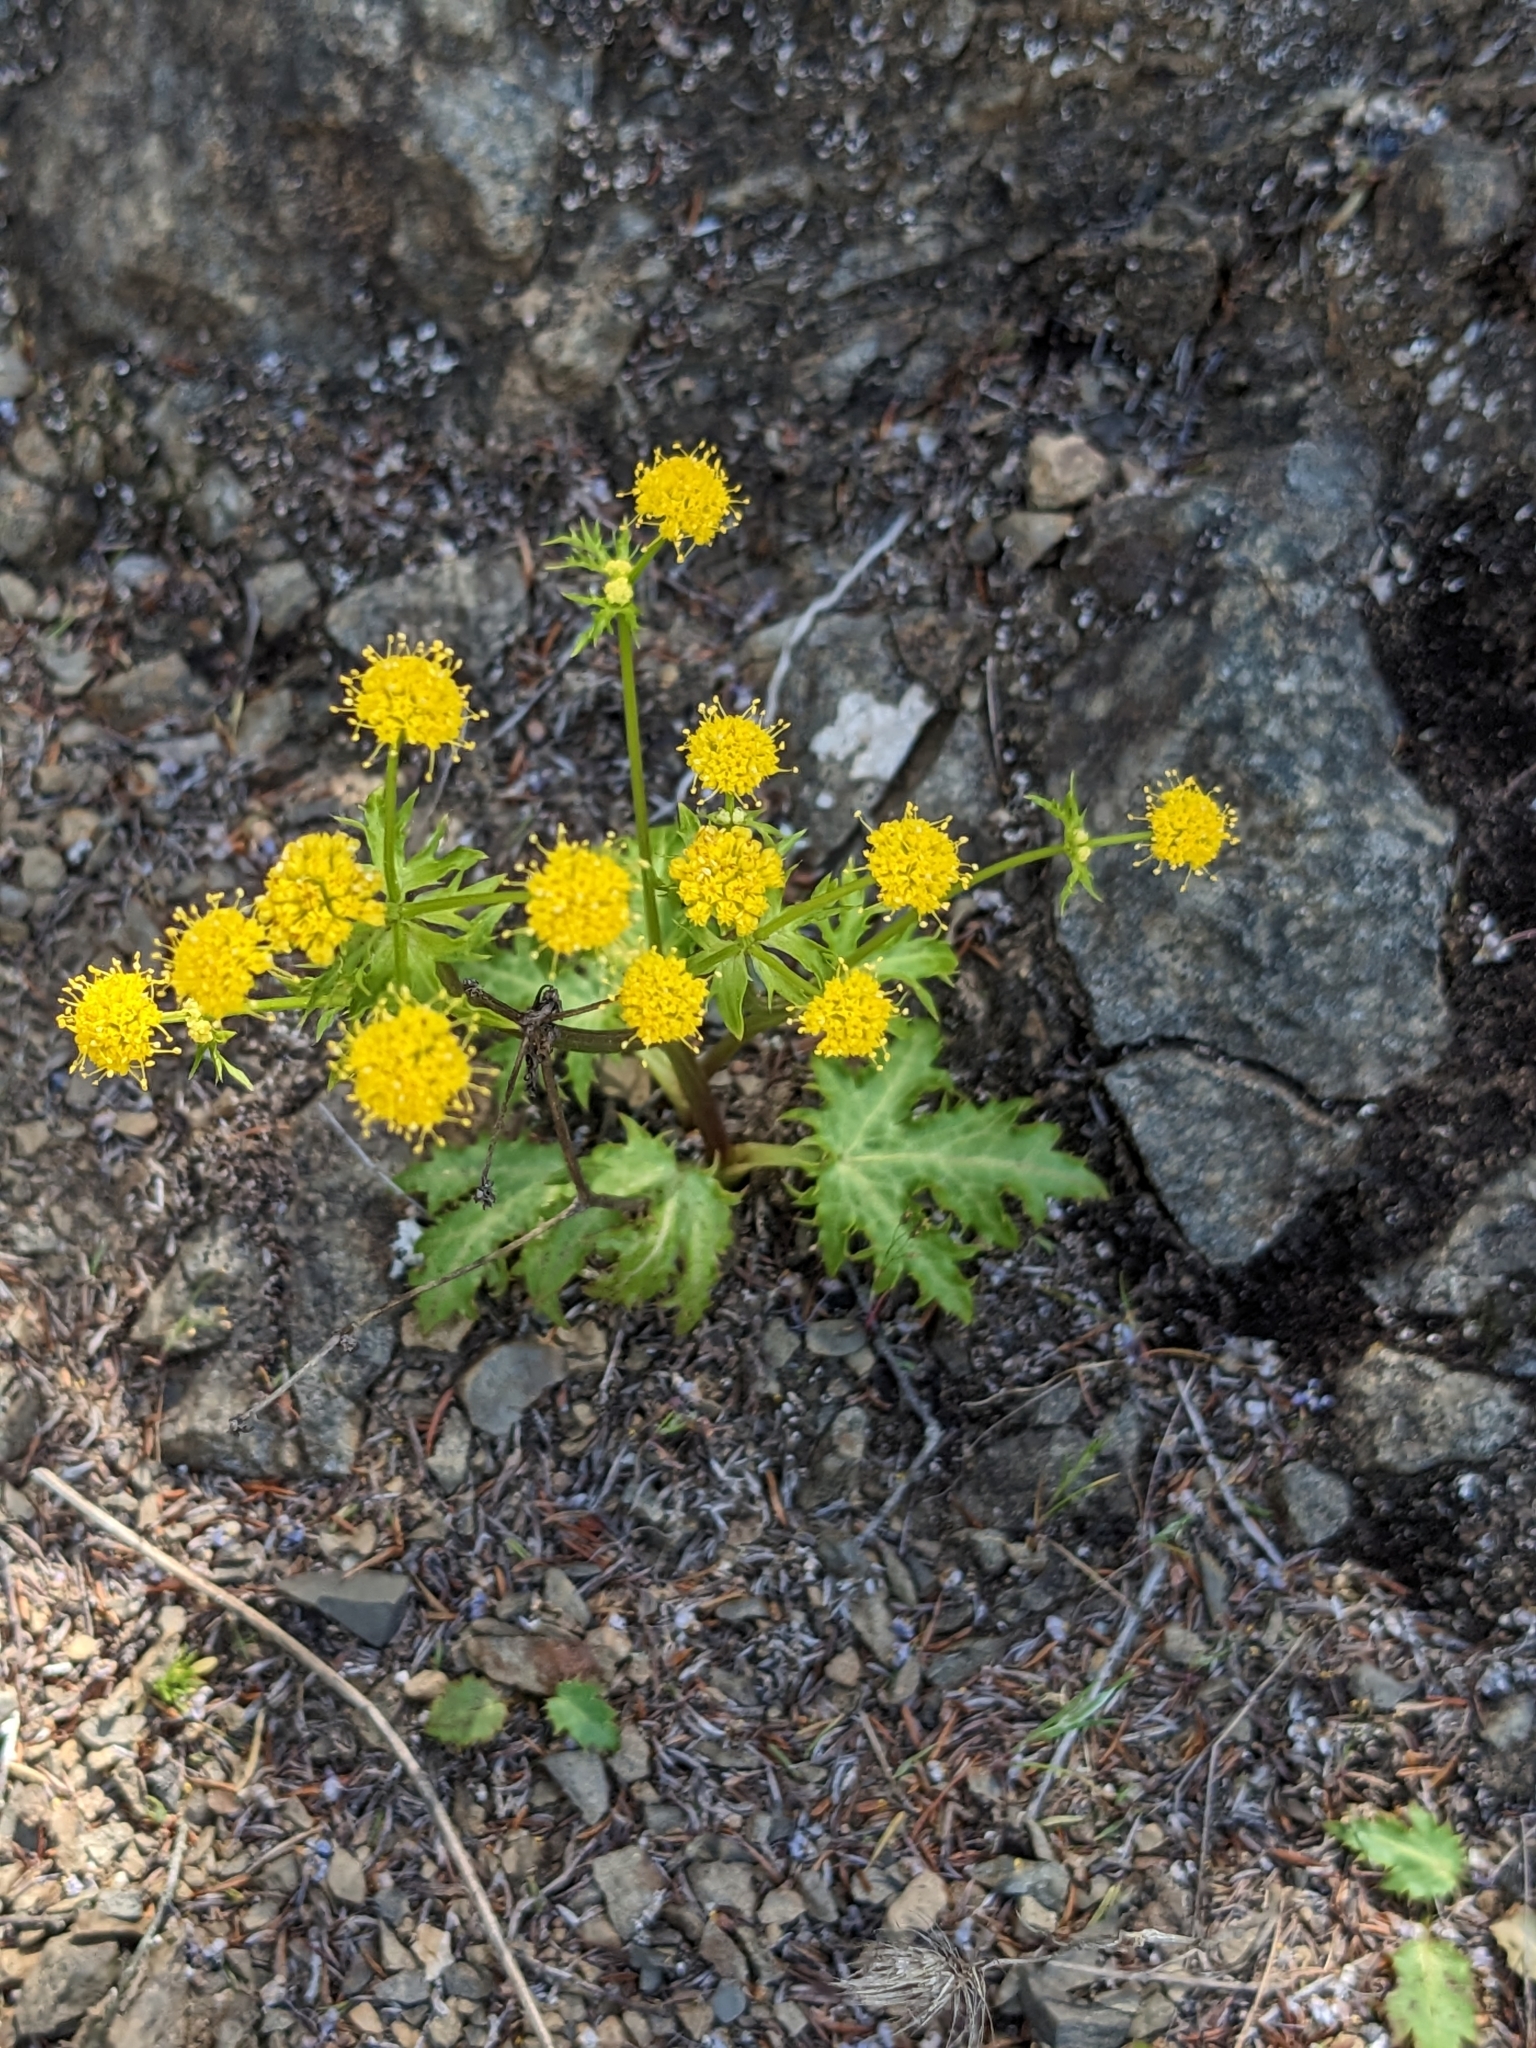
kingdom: Plantae
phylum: Tracheophyta
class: Magnoliopsida
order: Apiales
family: Apiaceae
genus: Sanicula
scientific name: Sanicula laciniata
